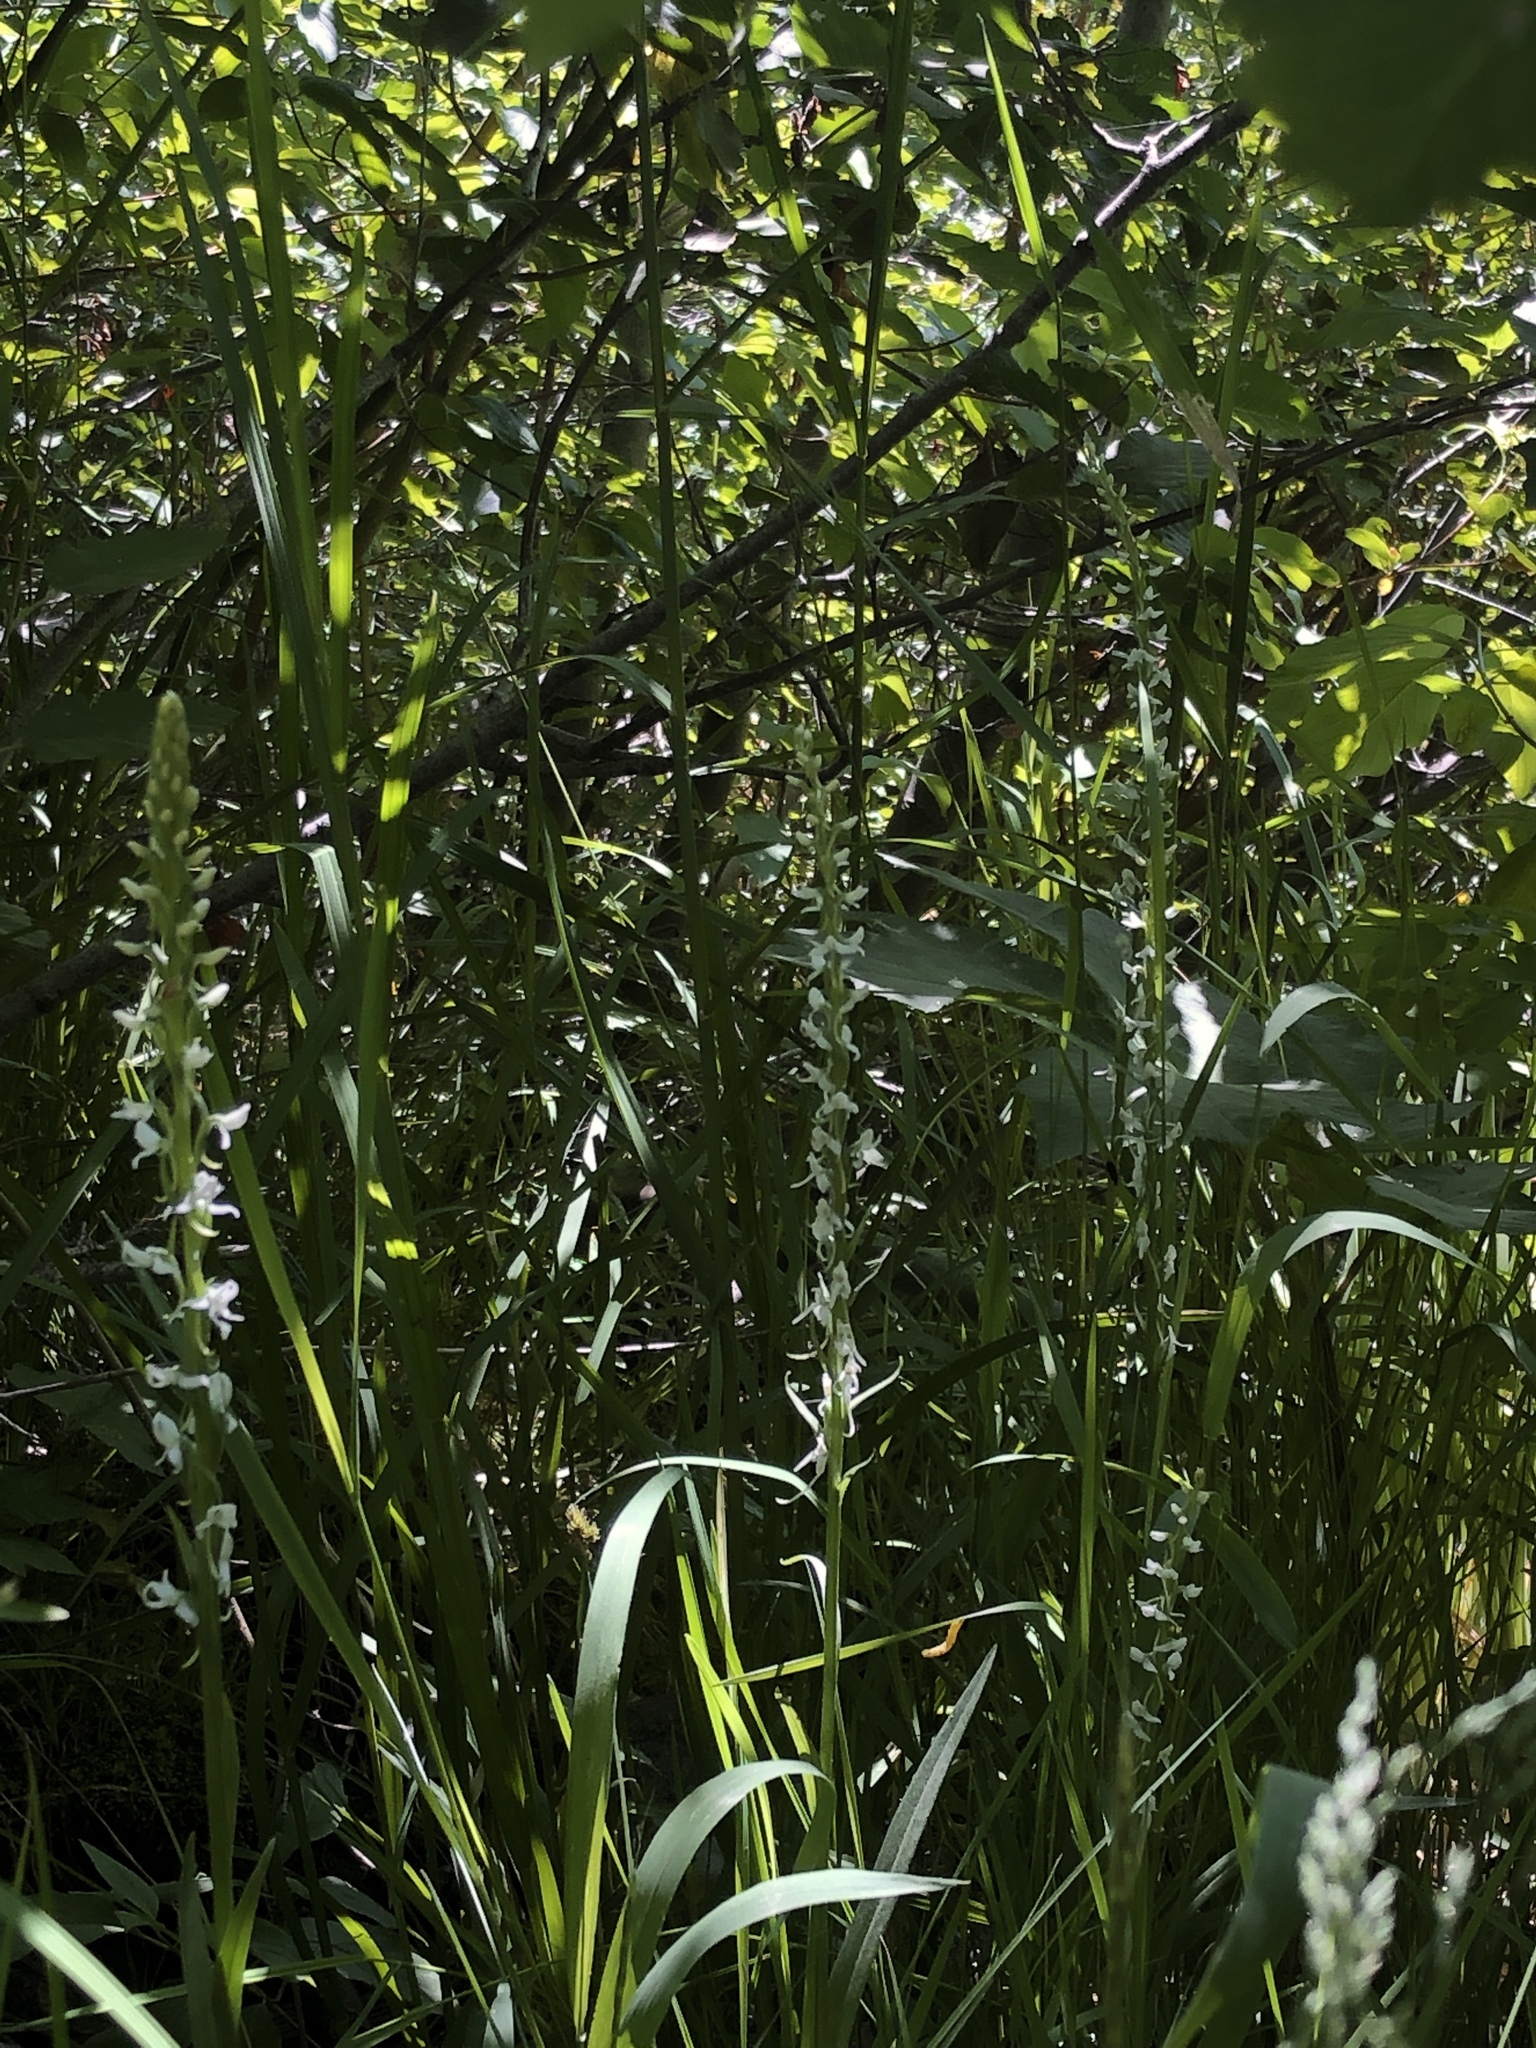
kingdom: Plantae
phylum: Tracheophyta
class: Liliopsida
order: Asparagales
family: Orchidaceae
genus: Platanthera
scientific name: Platanthera dilatata
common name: Bog candles
